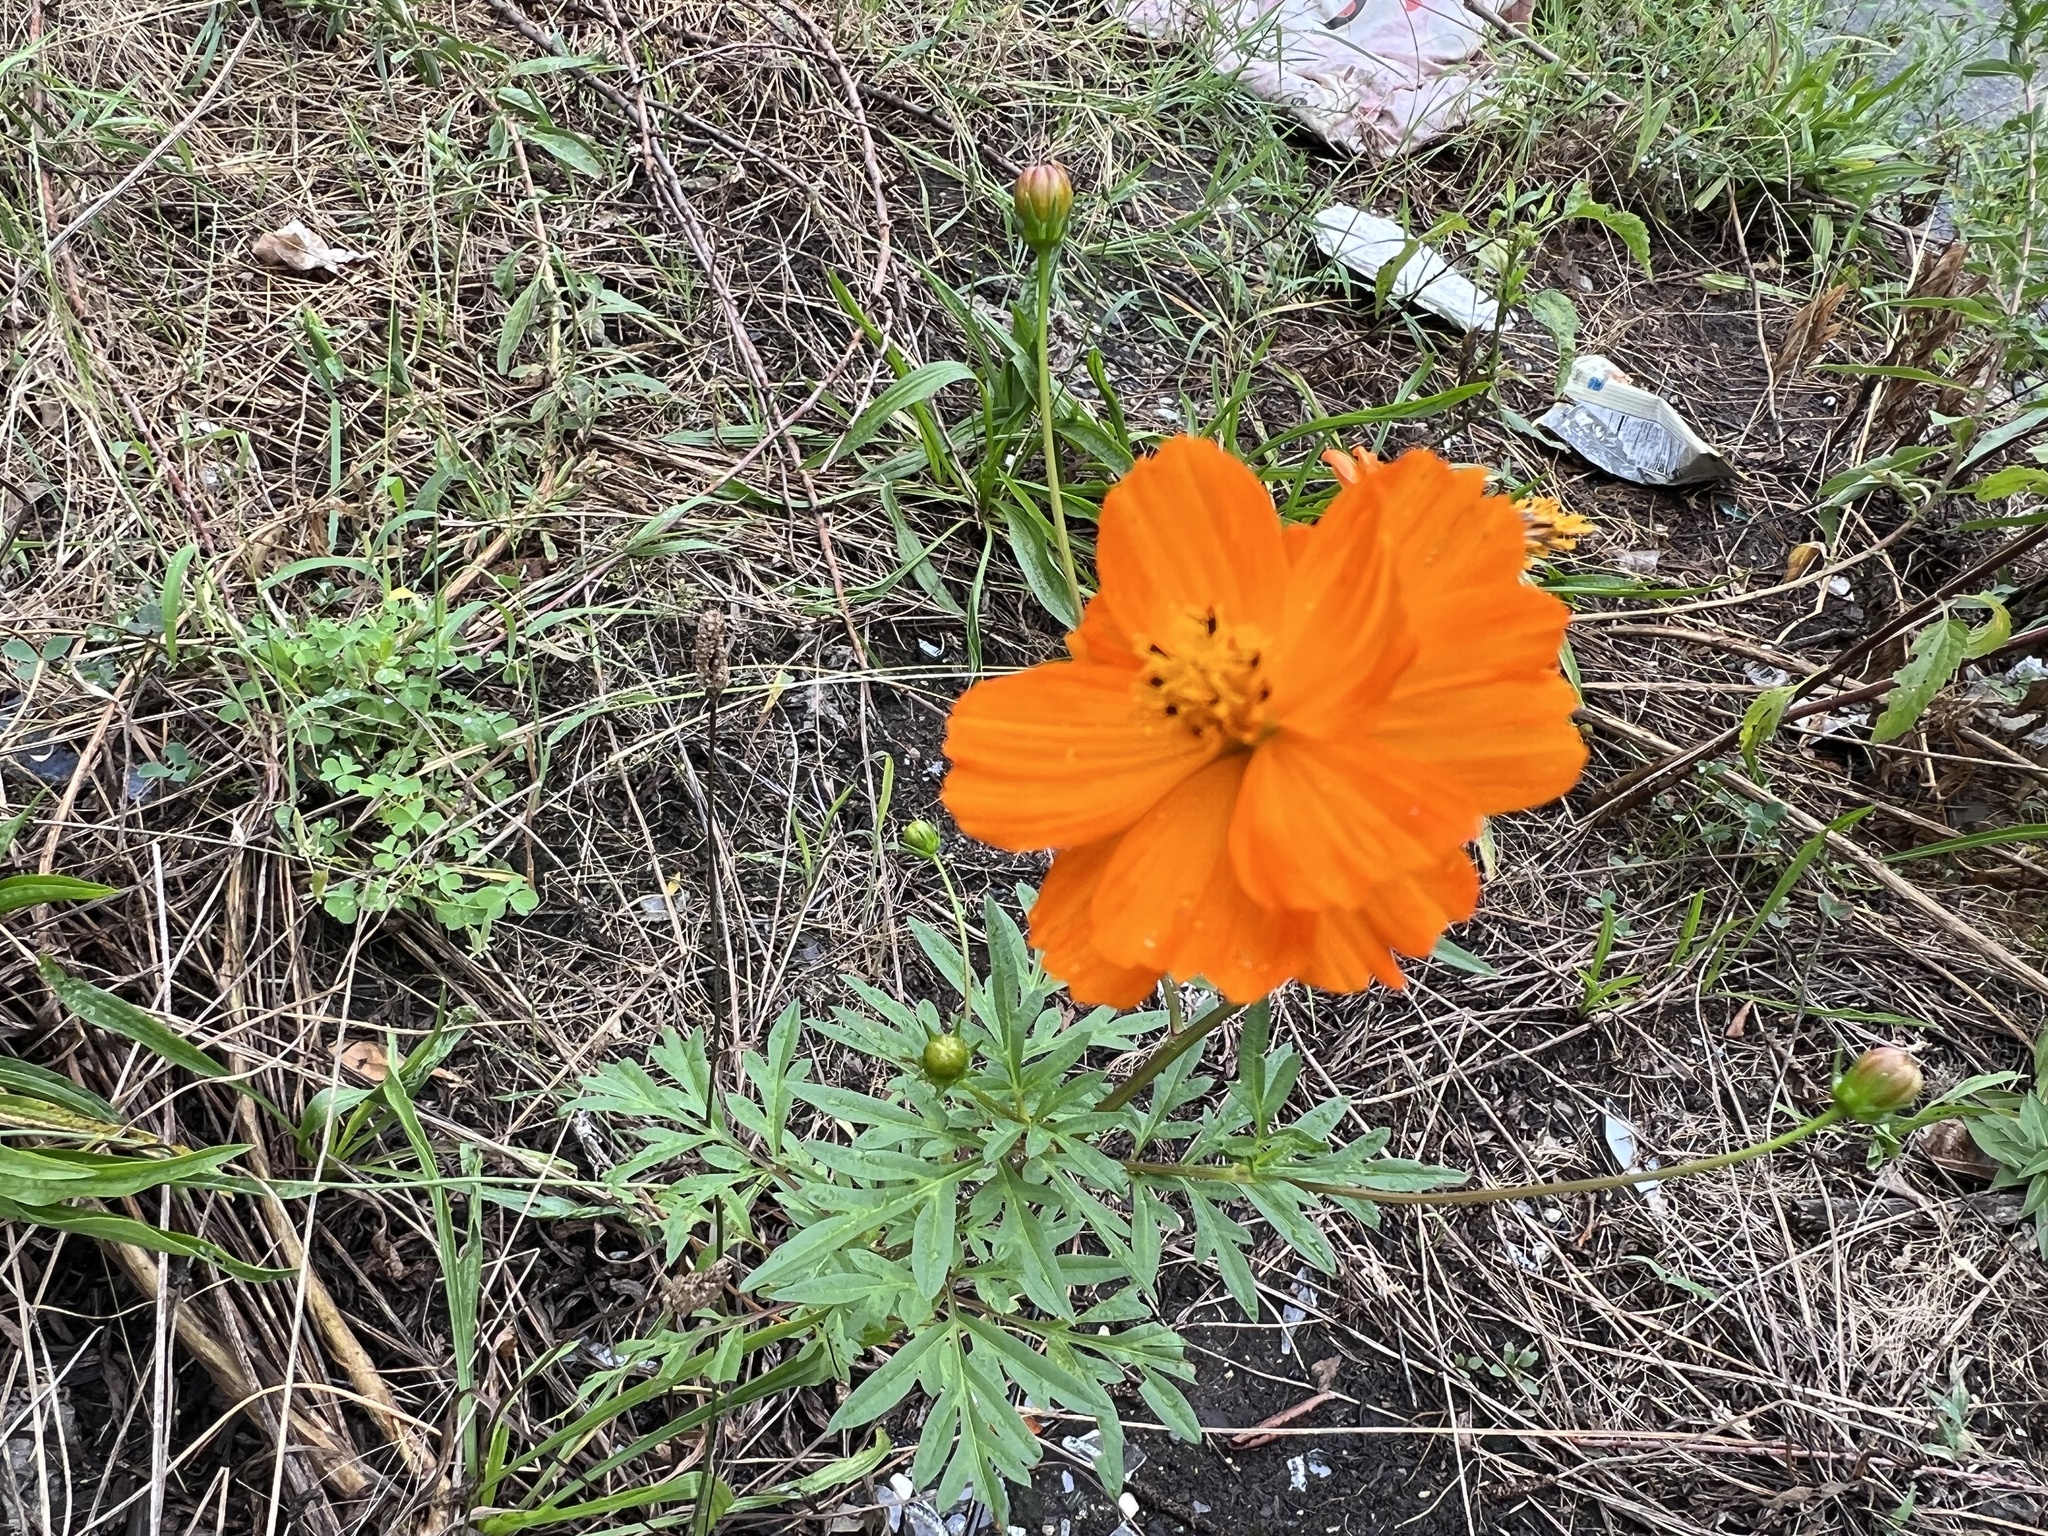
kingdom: Plantae
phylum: Tracheophyta
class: Magnoliopsida
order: Asterales
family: Asteraceae
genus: Cosmos
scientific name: Cosmos sulphureus
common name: Sulphur cosmos
